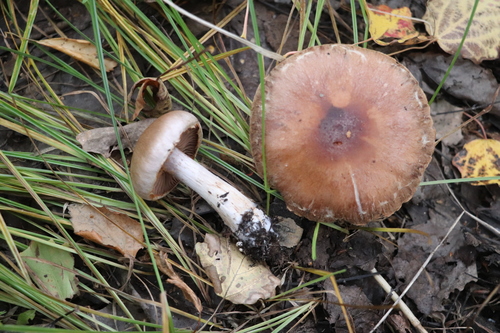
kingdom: Fungi
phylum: Basidiomycota
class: Agaricomycetes
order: Agaricales
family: Cortinariaceae
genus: Cortinarius
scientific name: Cortinarius
